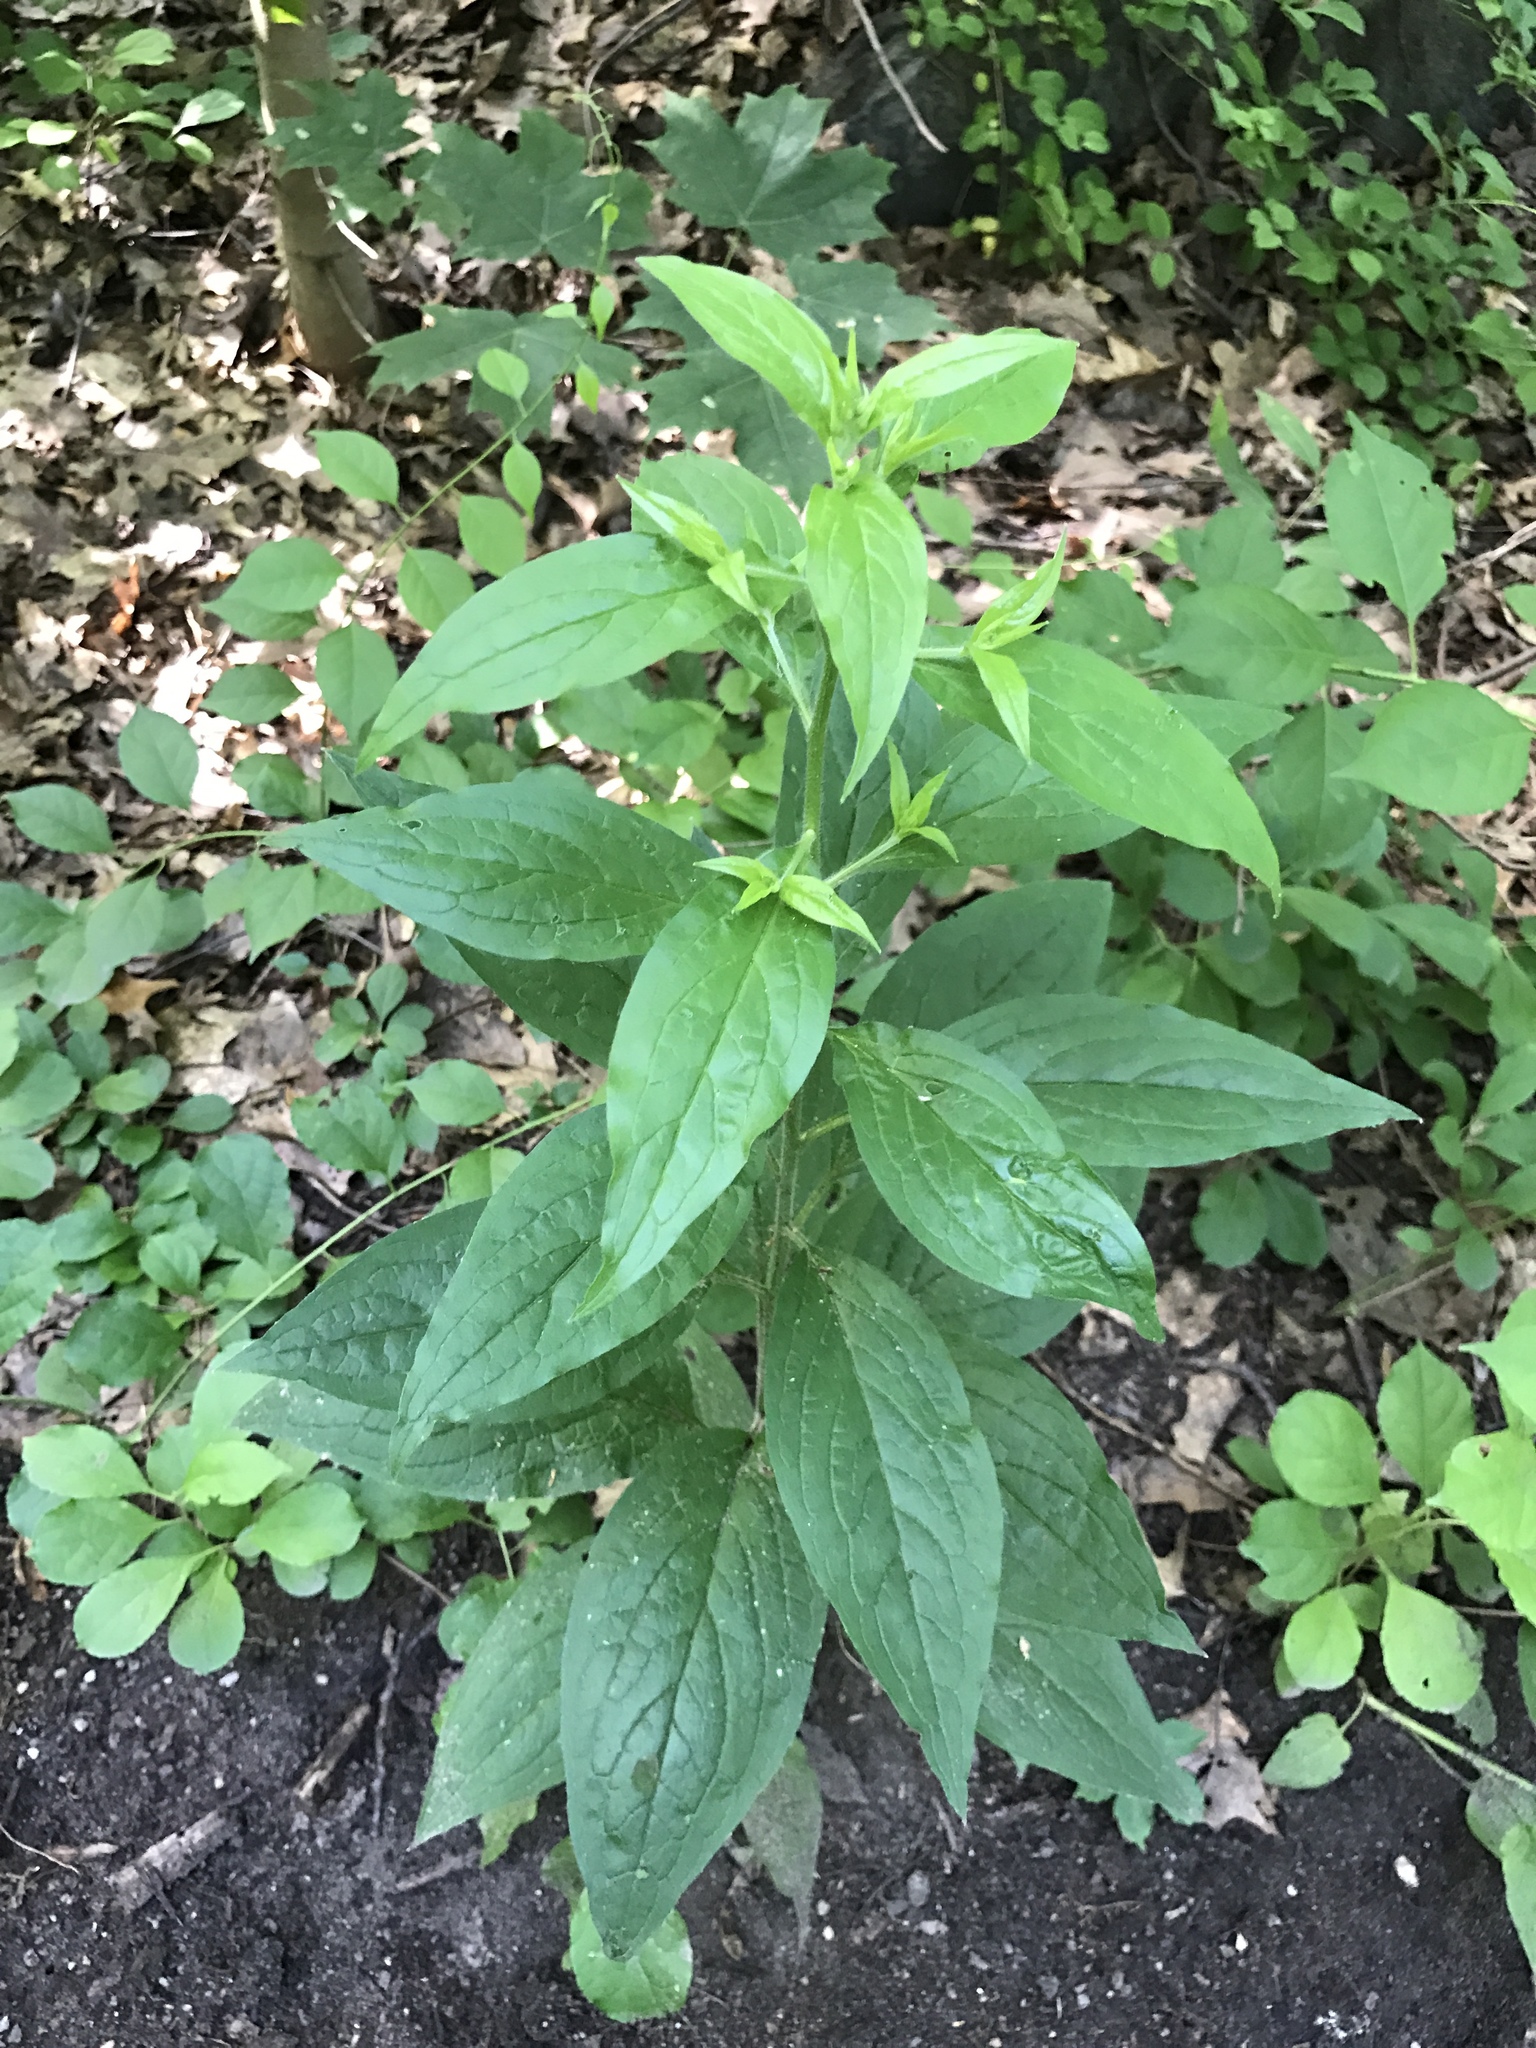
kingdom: Plantae
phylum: Tracheophyta
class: Magnoliopsida
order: Boraginales
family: Boraginaceae
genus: Hackelia
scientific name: Hackelia virginiana
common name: Beggar's-lice
